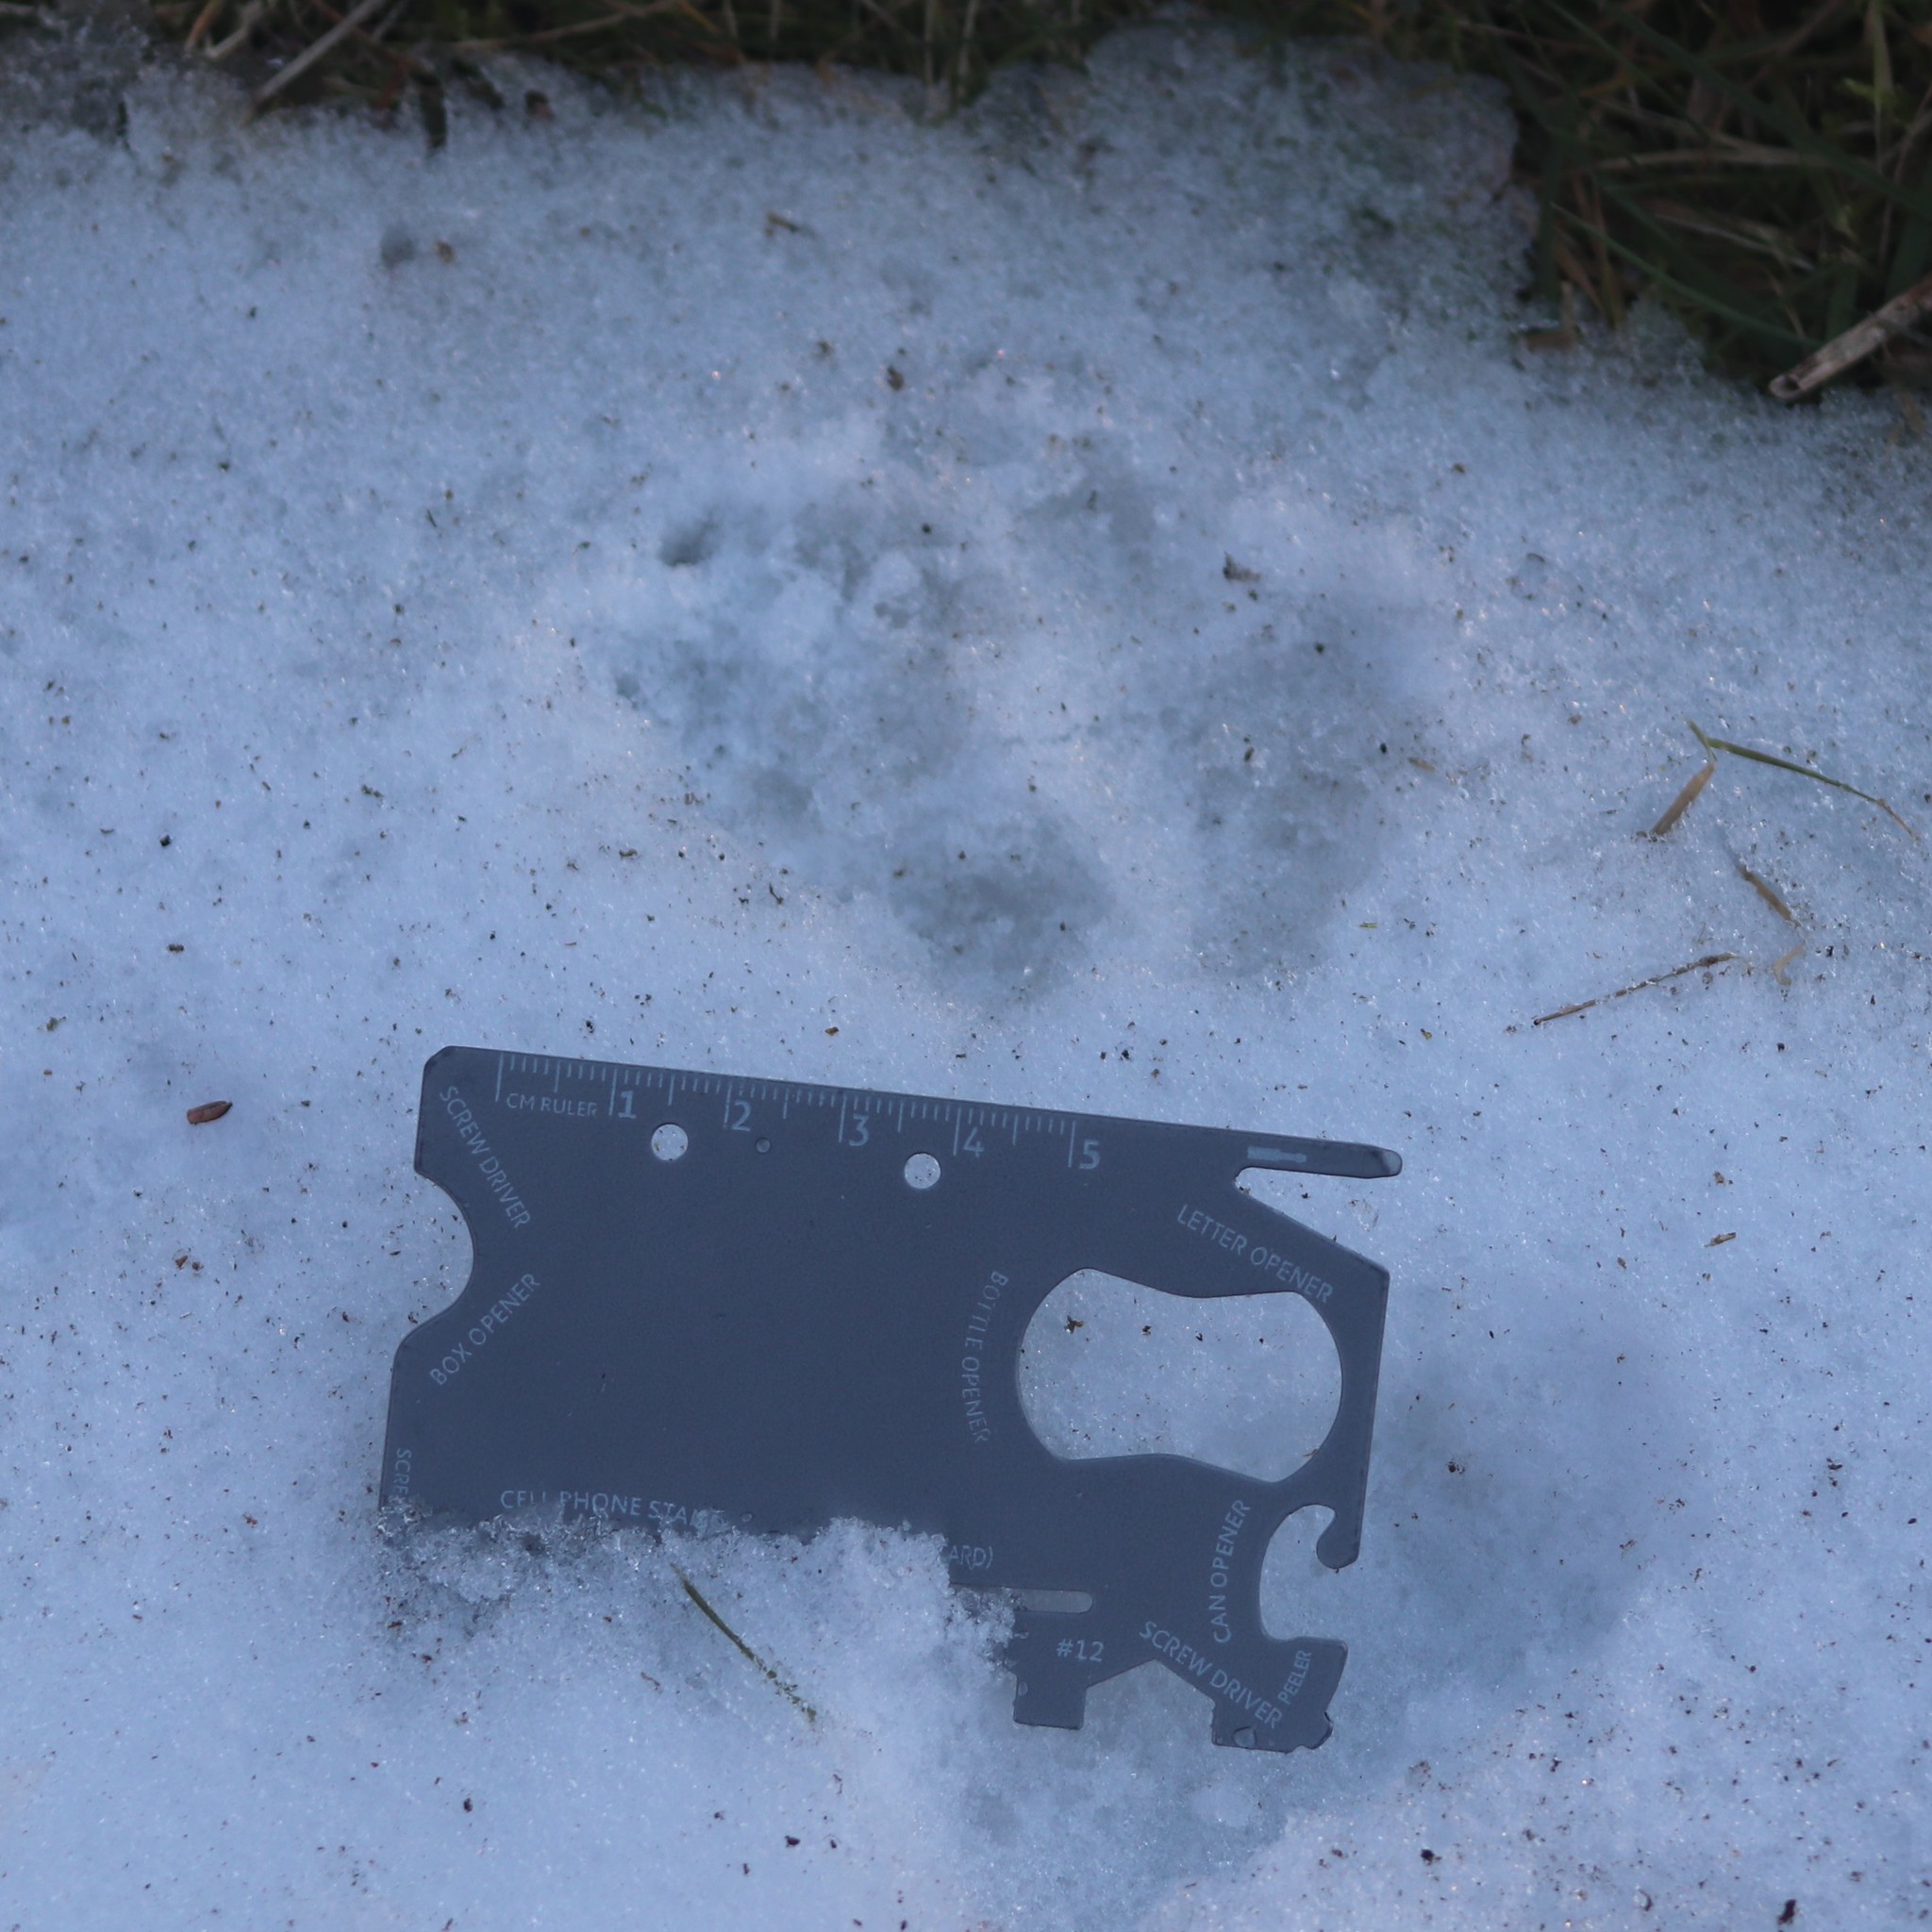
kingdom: Animalia
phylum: Chordata
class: Mammalia
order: Carnivora
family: Canidae
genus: Canis
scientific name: Canis latrans
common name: Coyote
